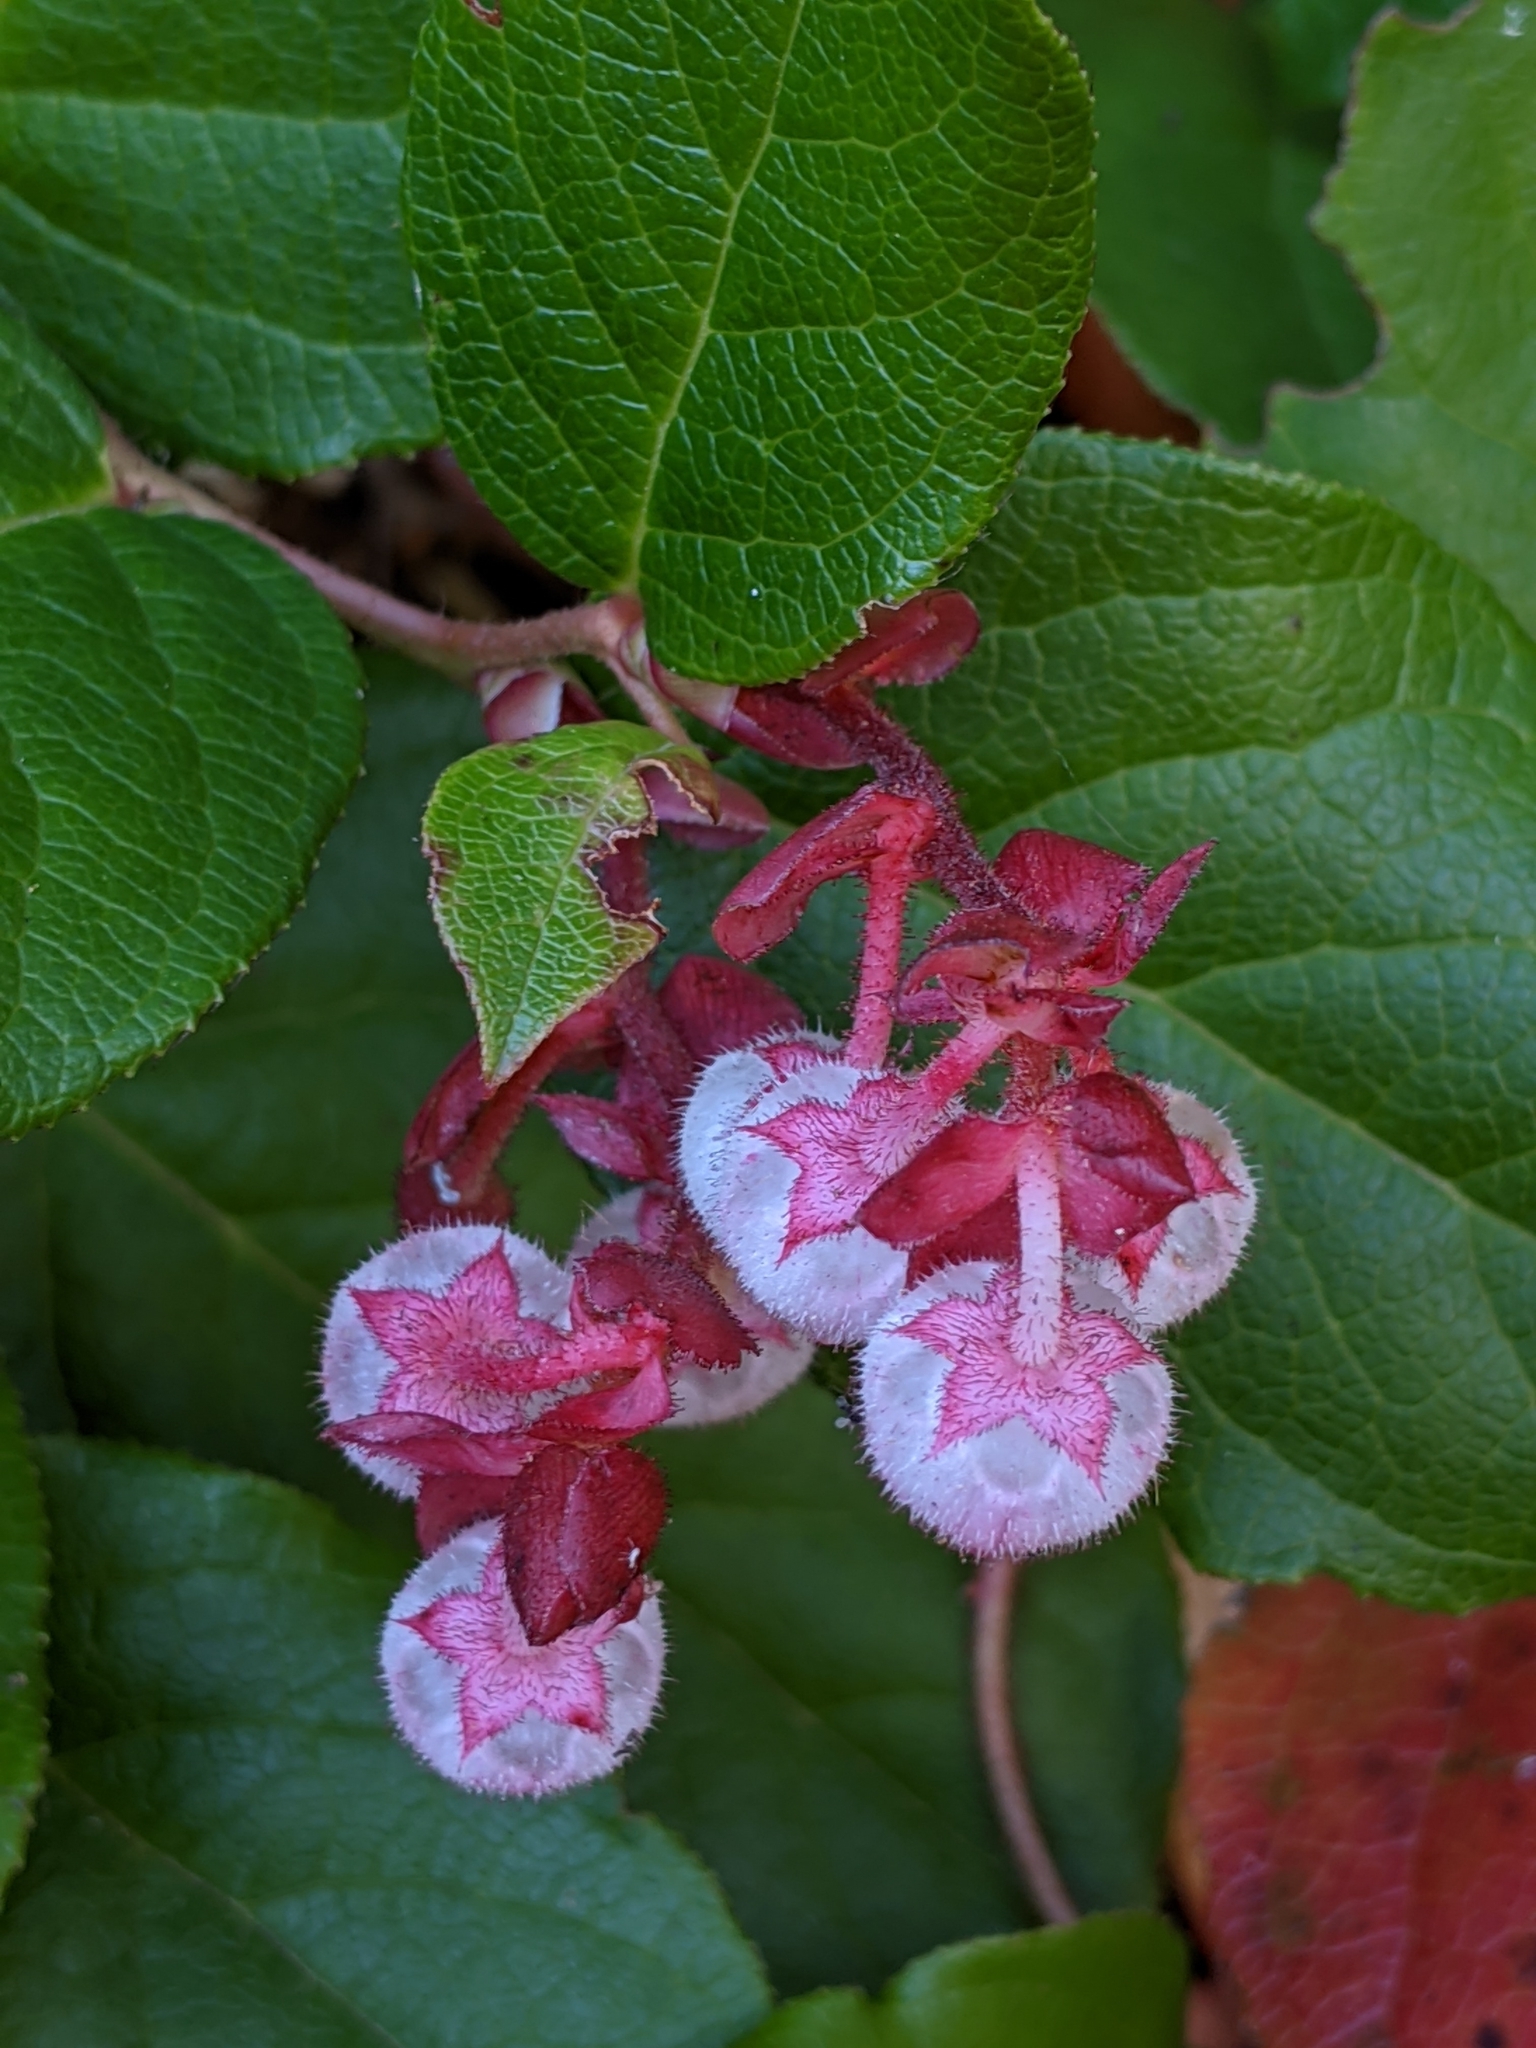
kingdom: Plantae
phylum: Tracheophyta
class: Magnoliopsida
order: Ericales
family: Ericaceae
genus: Gaultheria
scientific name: Gaultheria shallon
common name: Shallon
